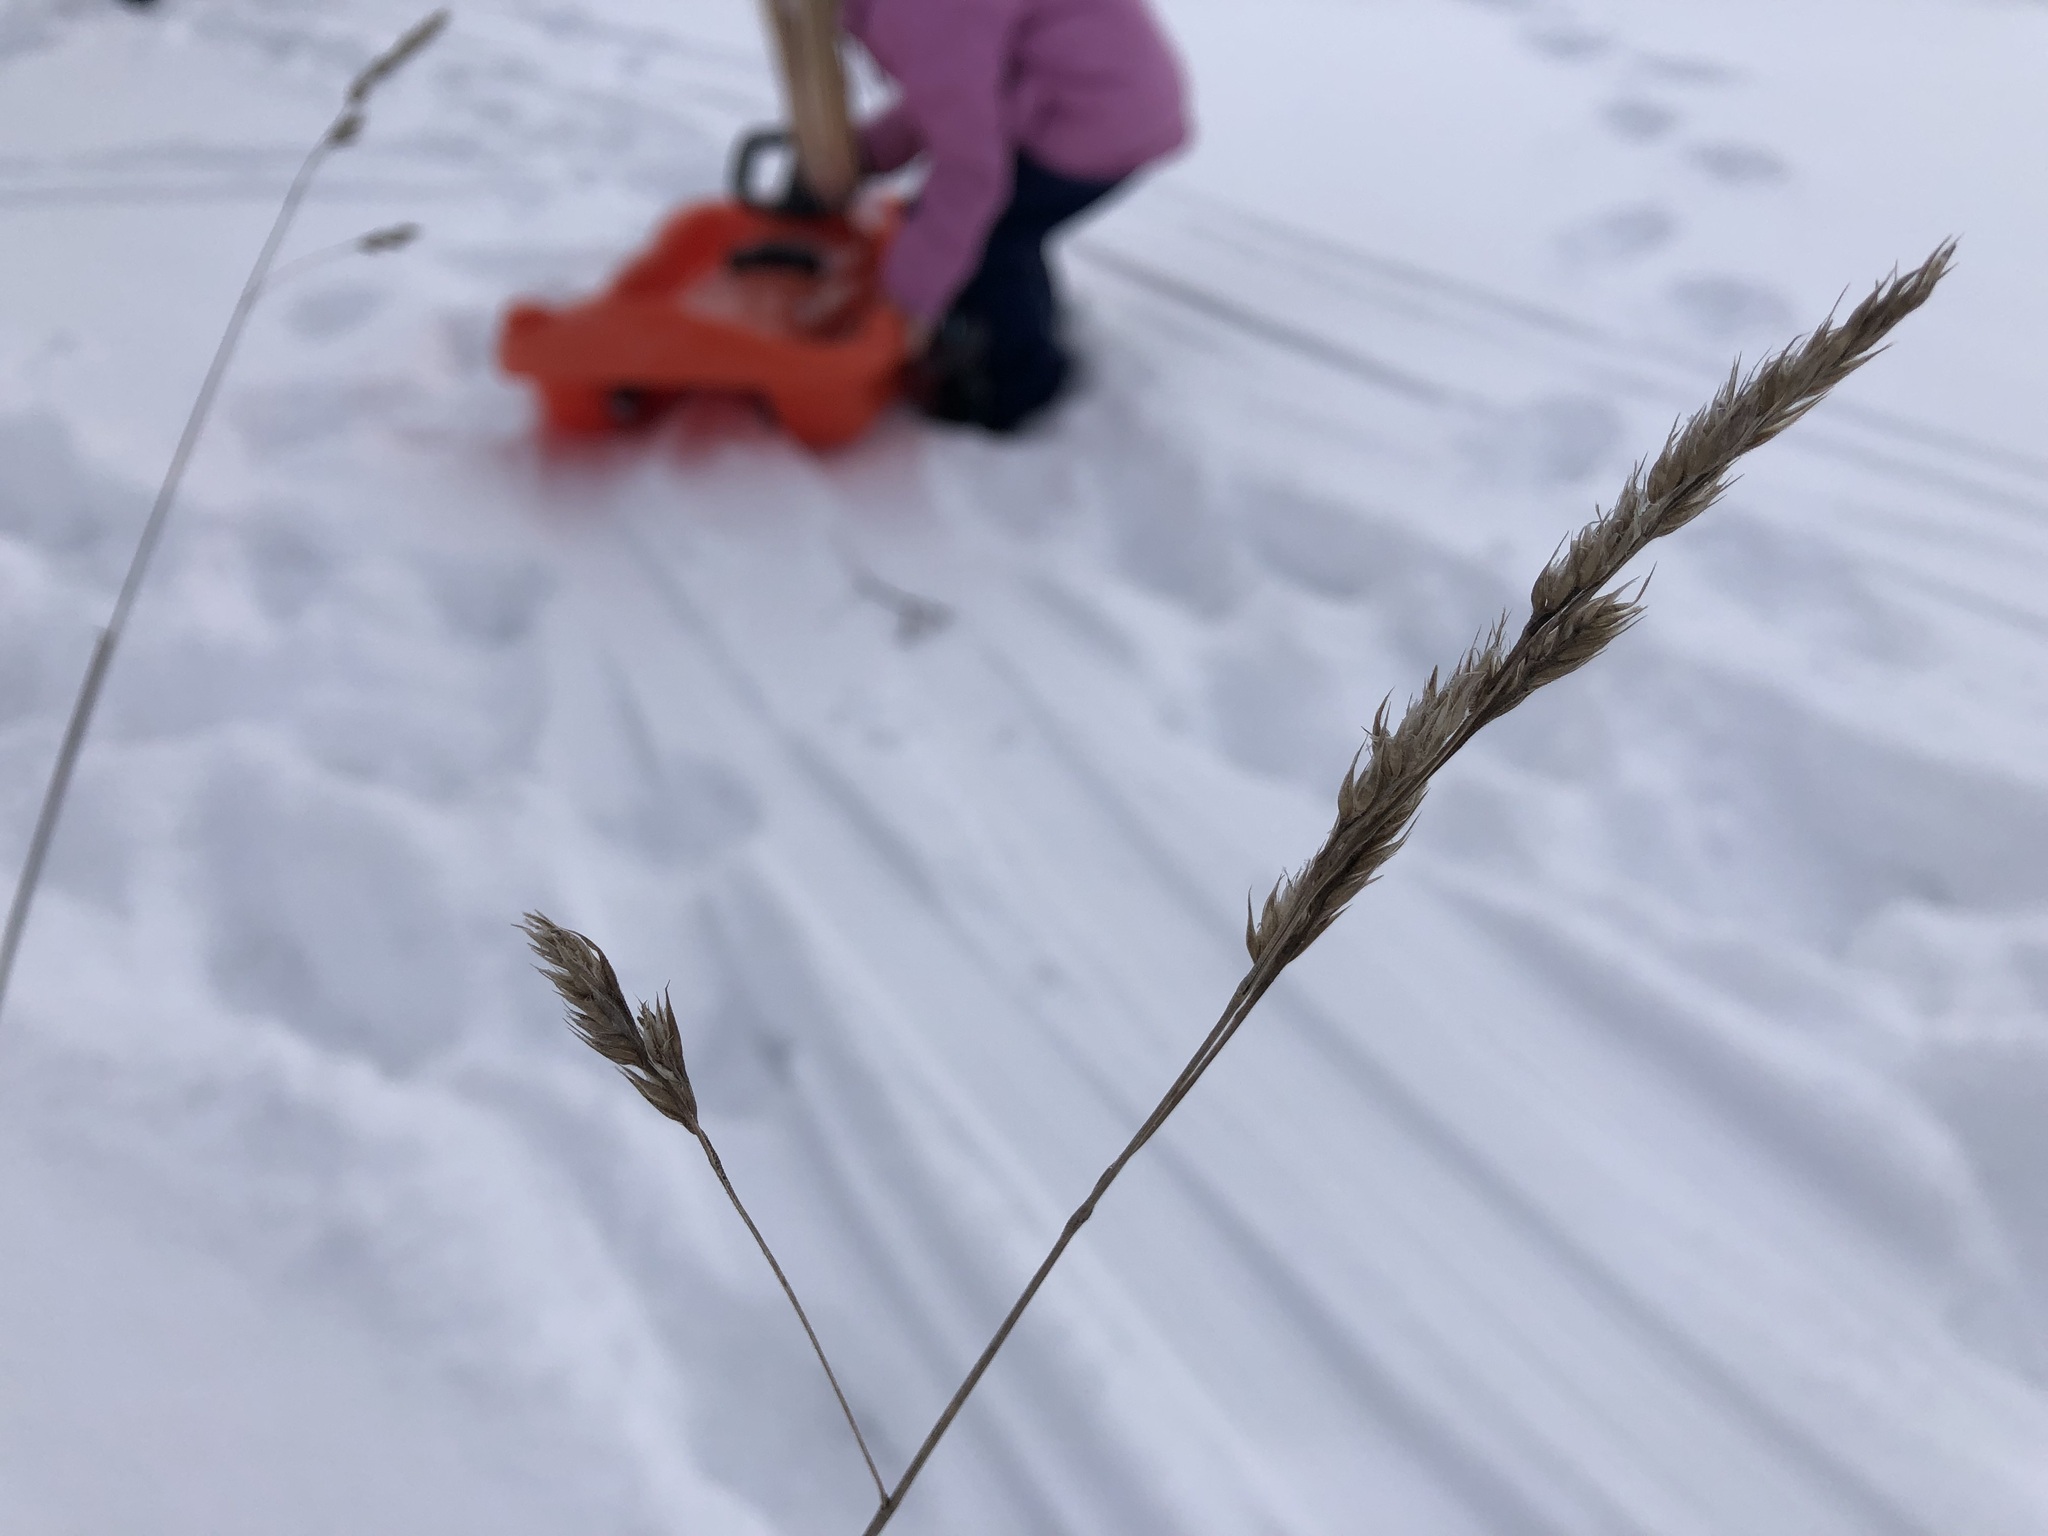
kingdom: Plantae
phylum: Tracheophyta
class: Liliopsida
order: Poales
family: Poaceae
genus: Dactylis
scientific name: Dactylis glomerata
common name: Orchardgrass
